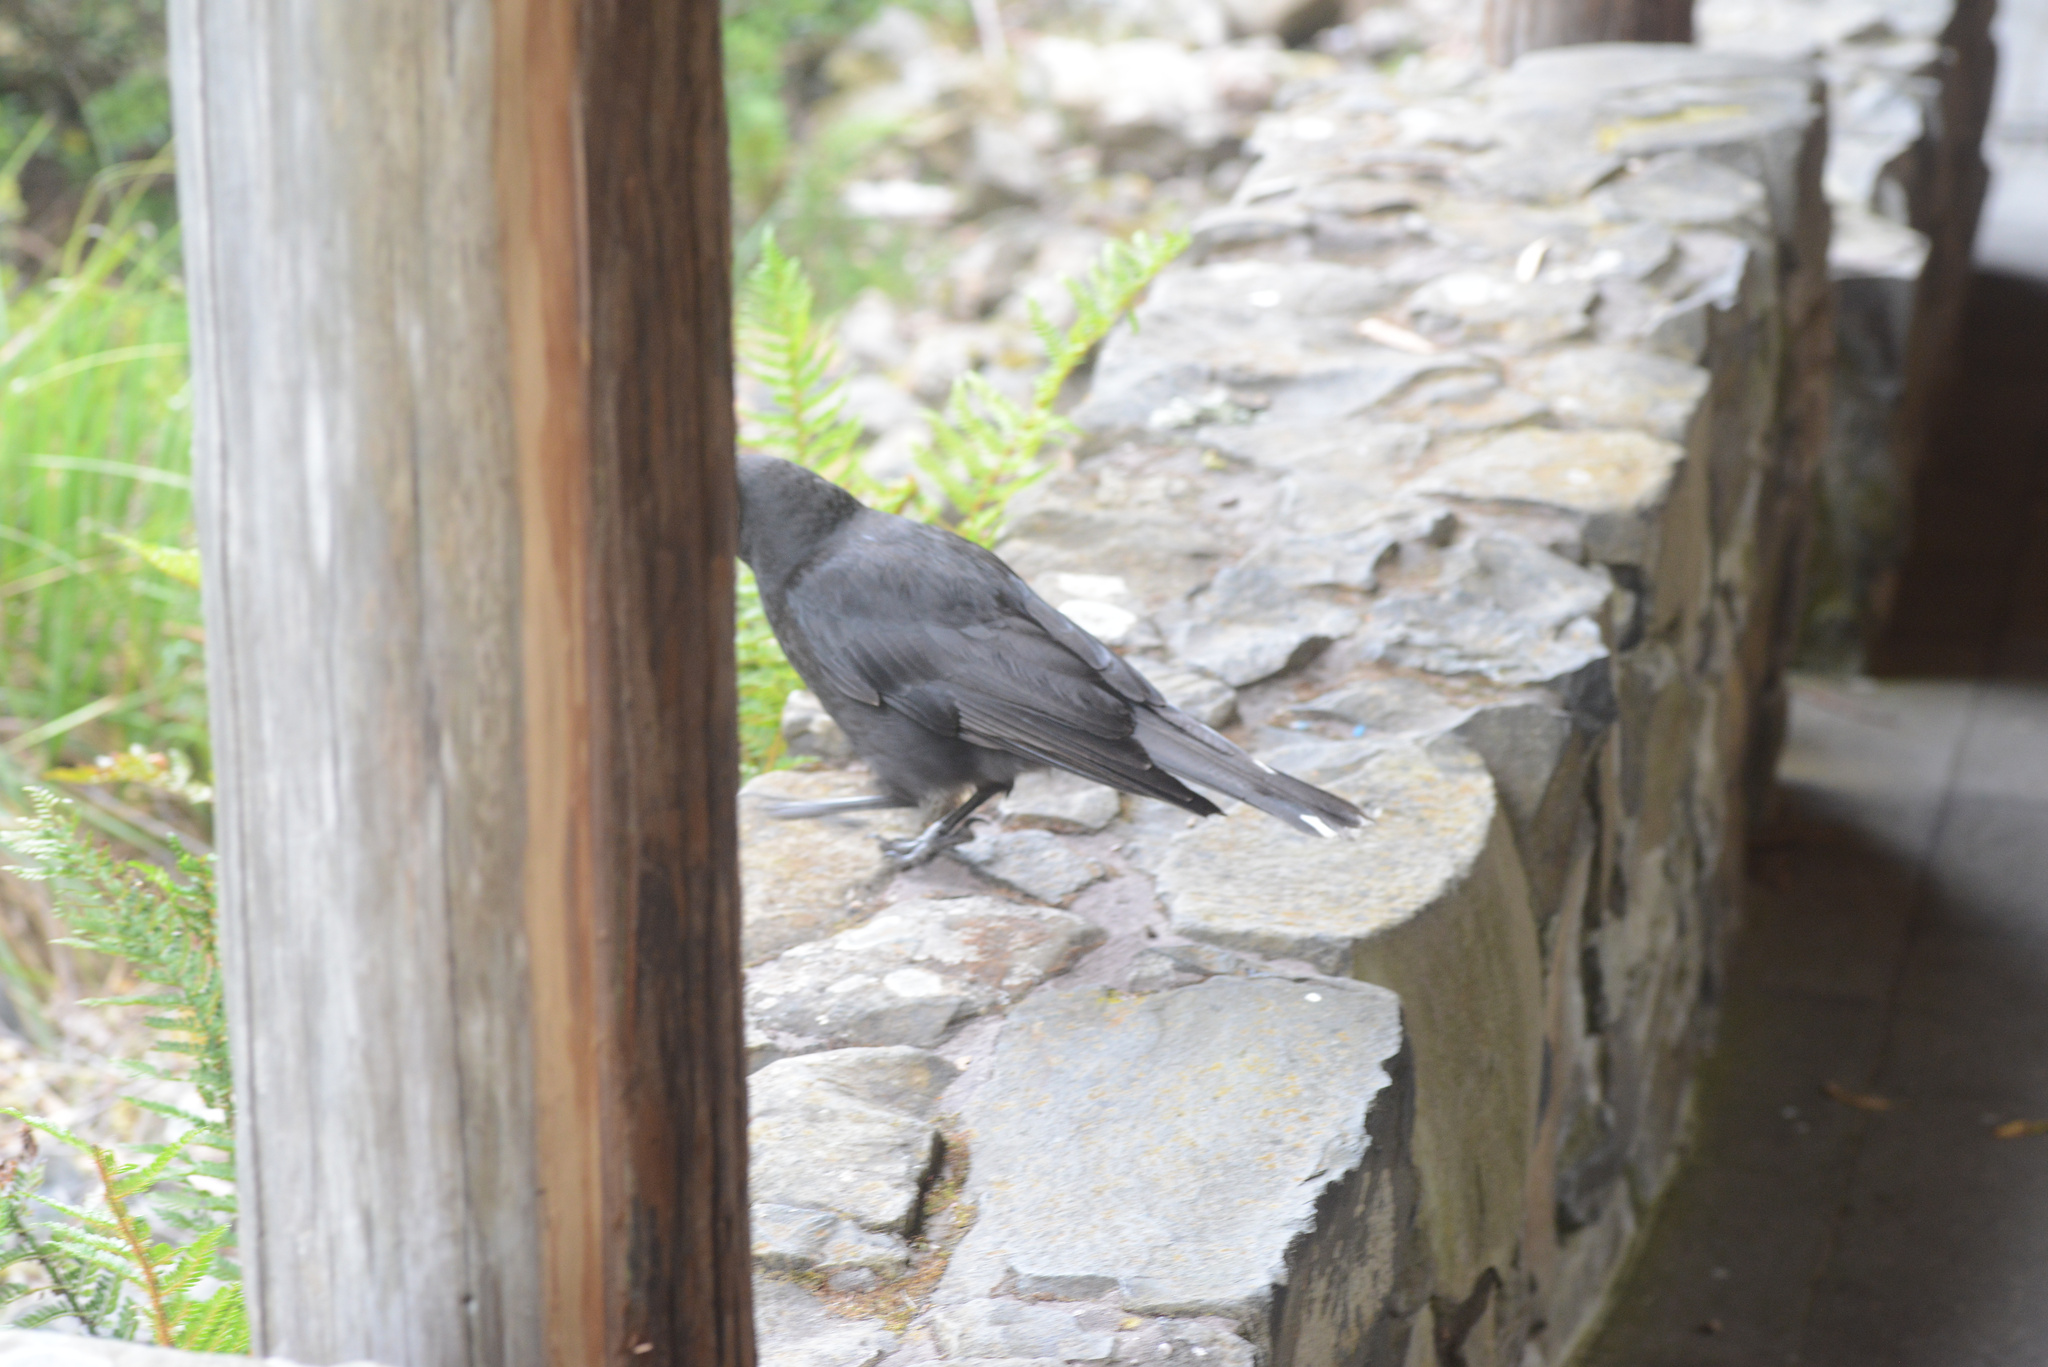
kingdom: Animalia
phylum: Chordata
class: Aves
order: Passeriformes
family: Cracticidae
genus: Strepera
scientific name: Strepera fuliginosa
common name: Black currawong
